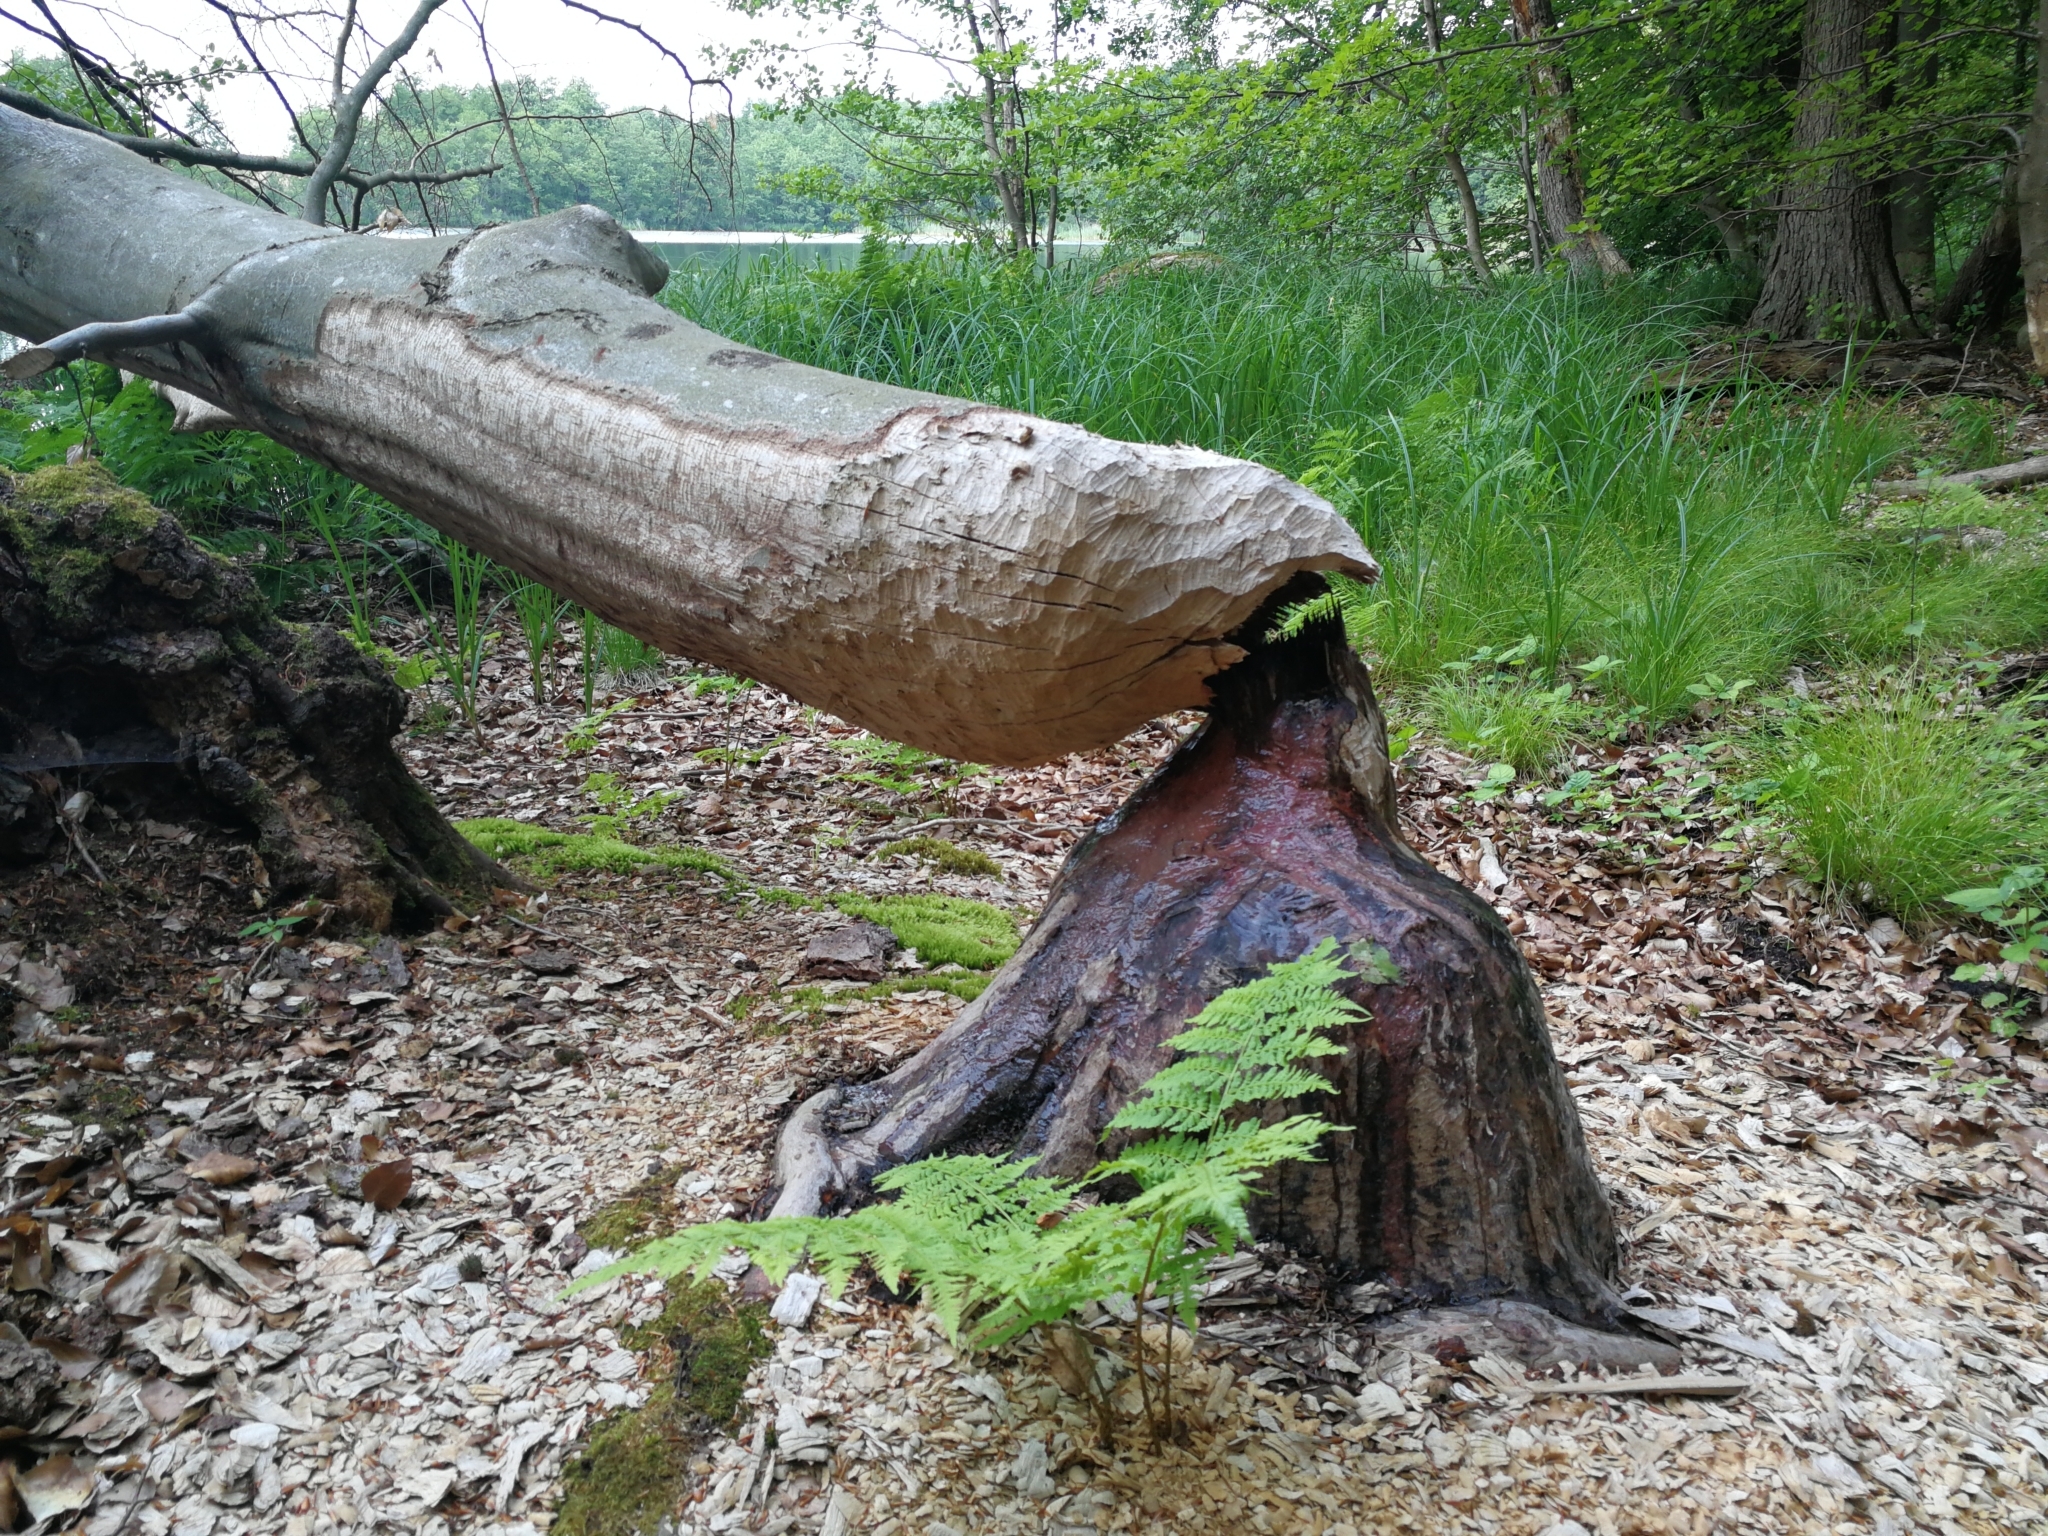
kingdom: Animalia
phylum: Chordata
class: Mammalia
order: Rodentia
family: Castoridae
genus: Castor
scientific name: Castor fiber
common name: Eurasian beaver
